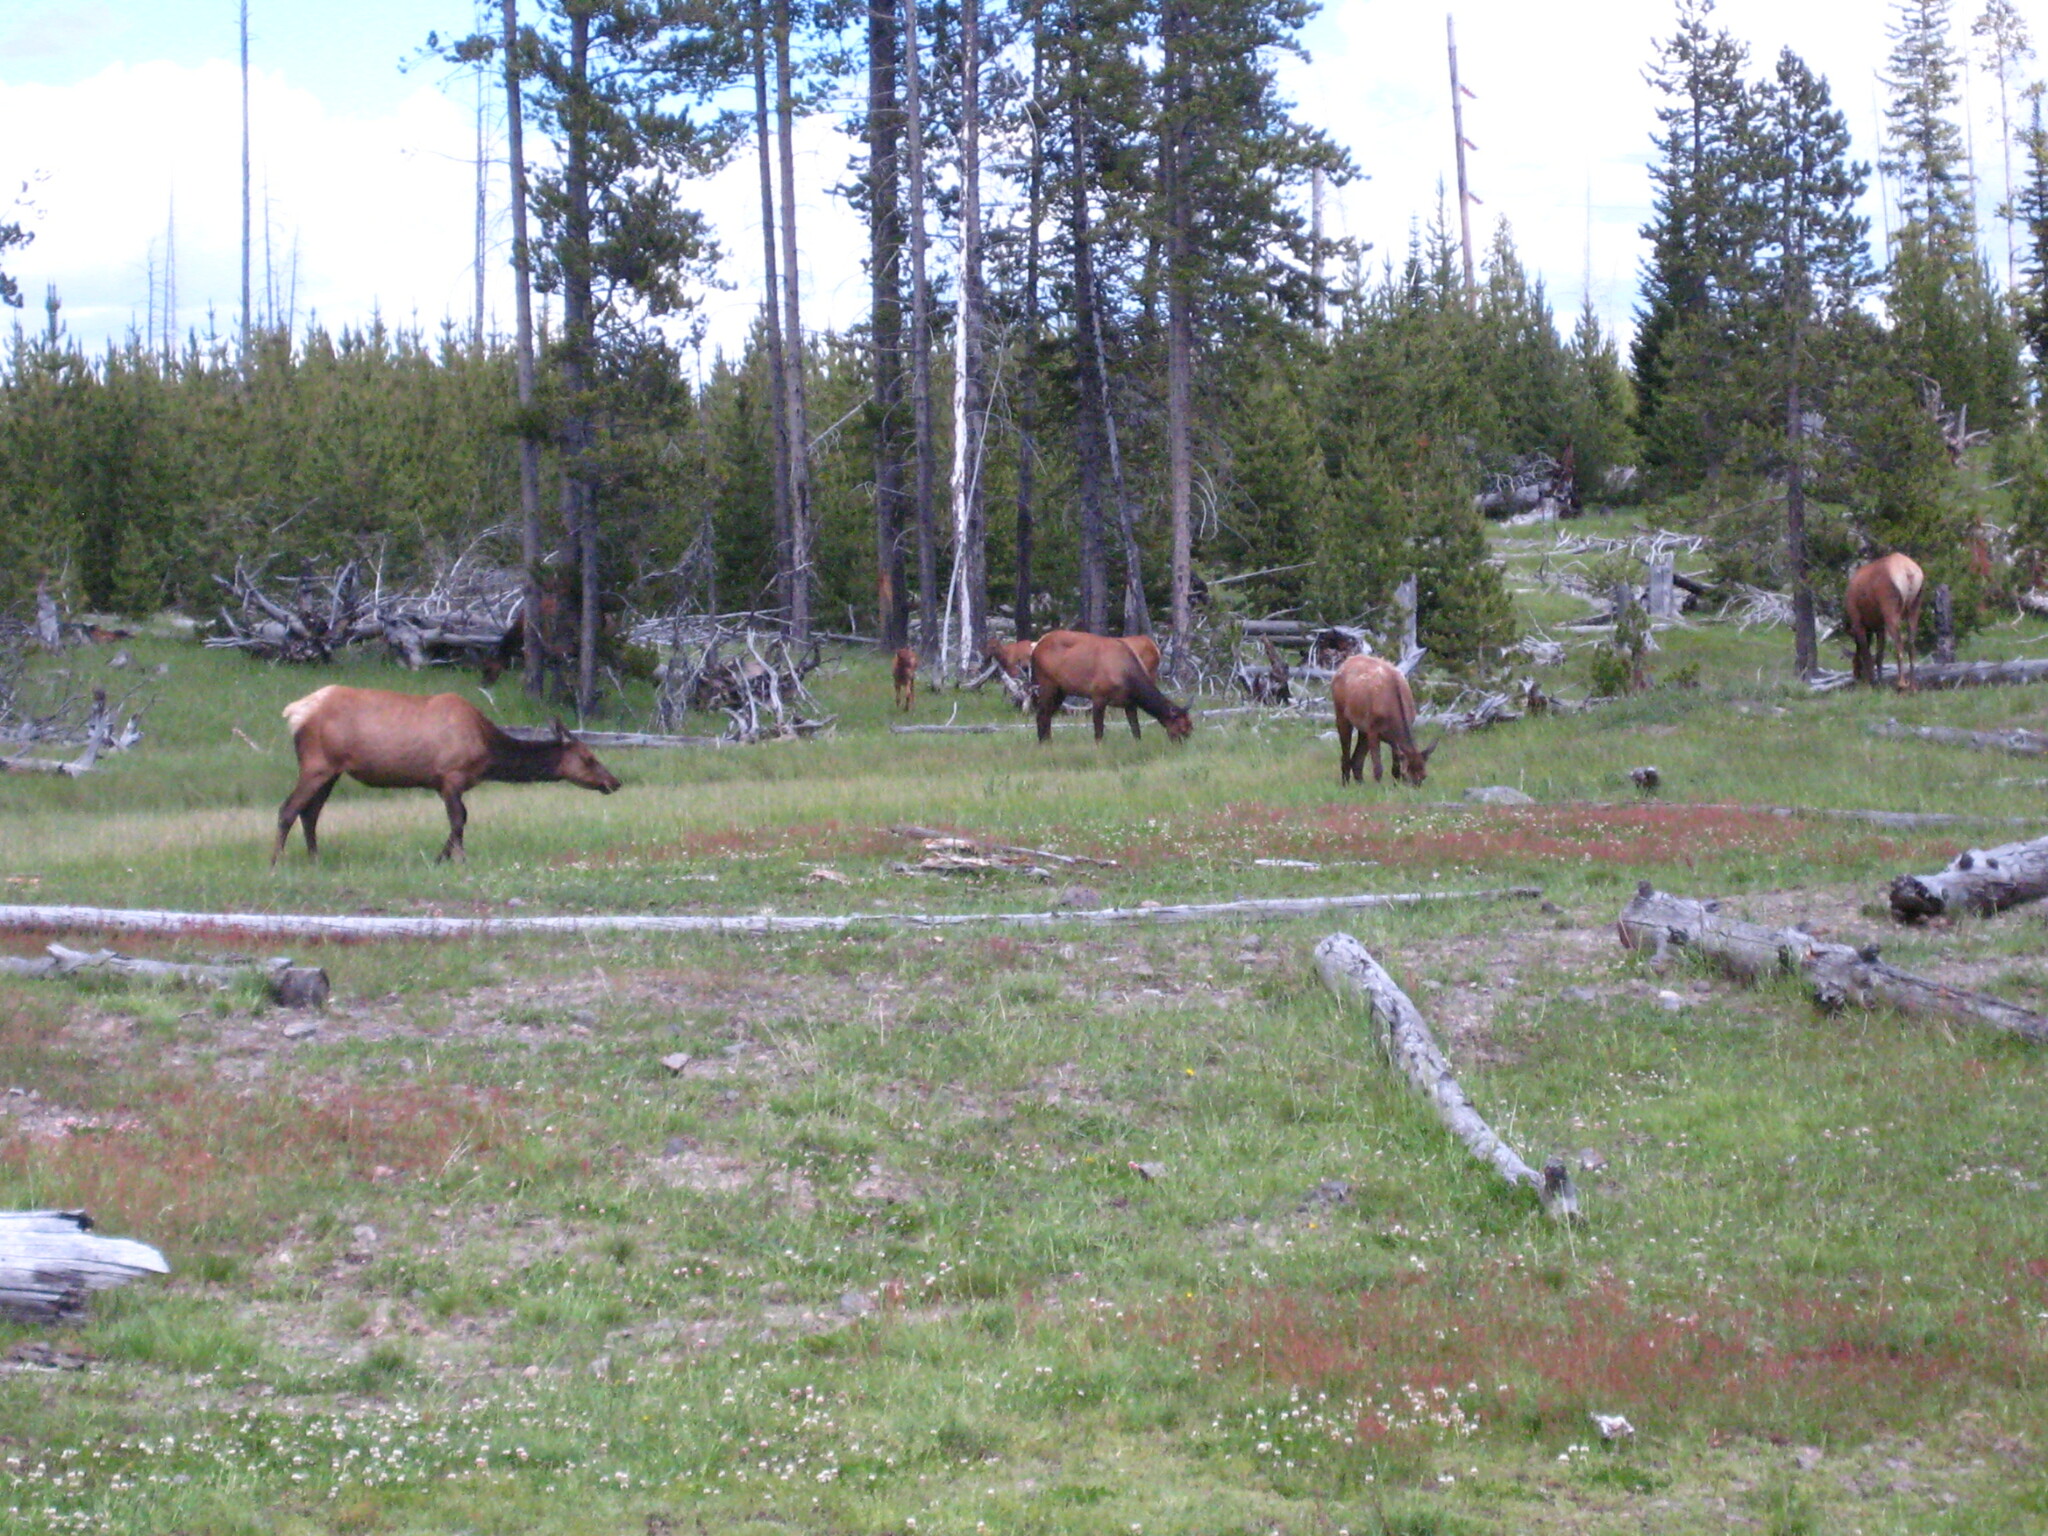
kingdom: Animalia
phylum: Chordata
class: Mammalia
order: Artiodactyla
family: Cervidae
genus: Cervus
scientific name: Cervus elaphus
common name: Red deer
